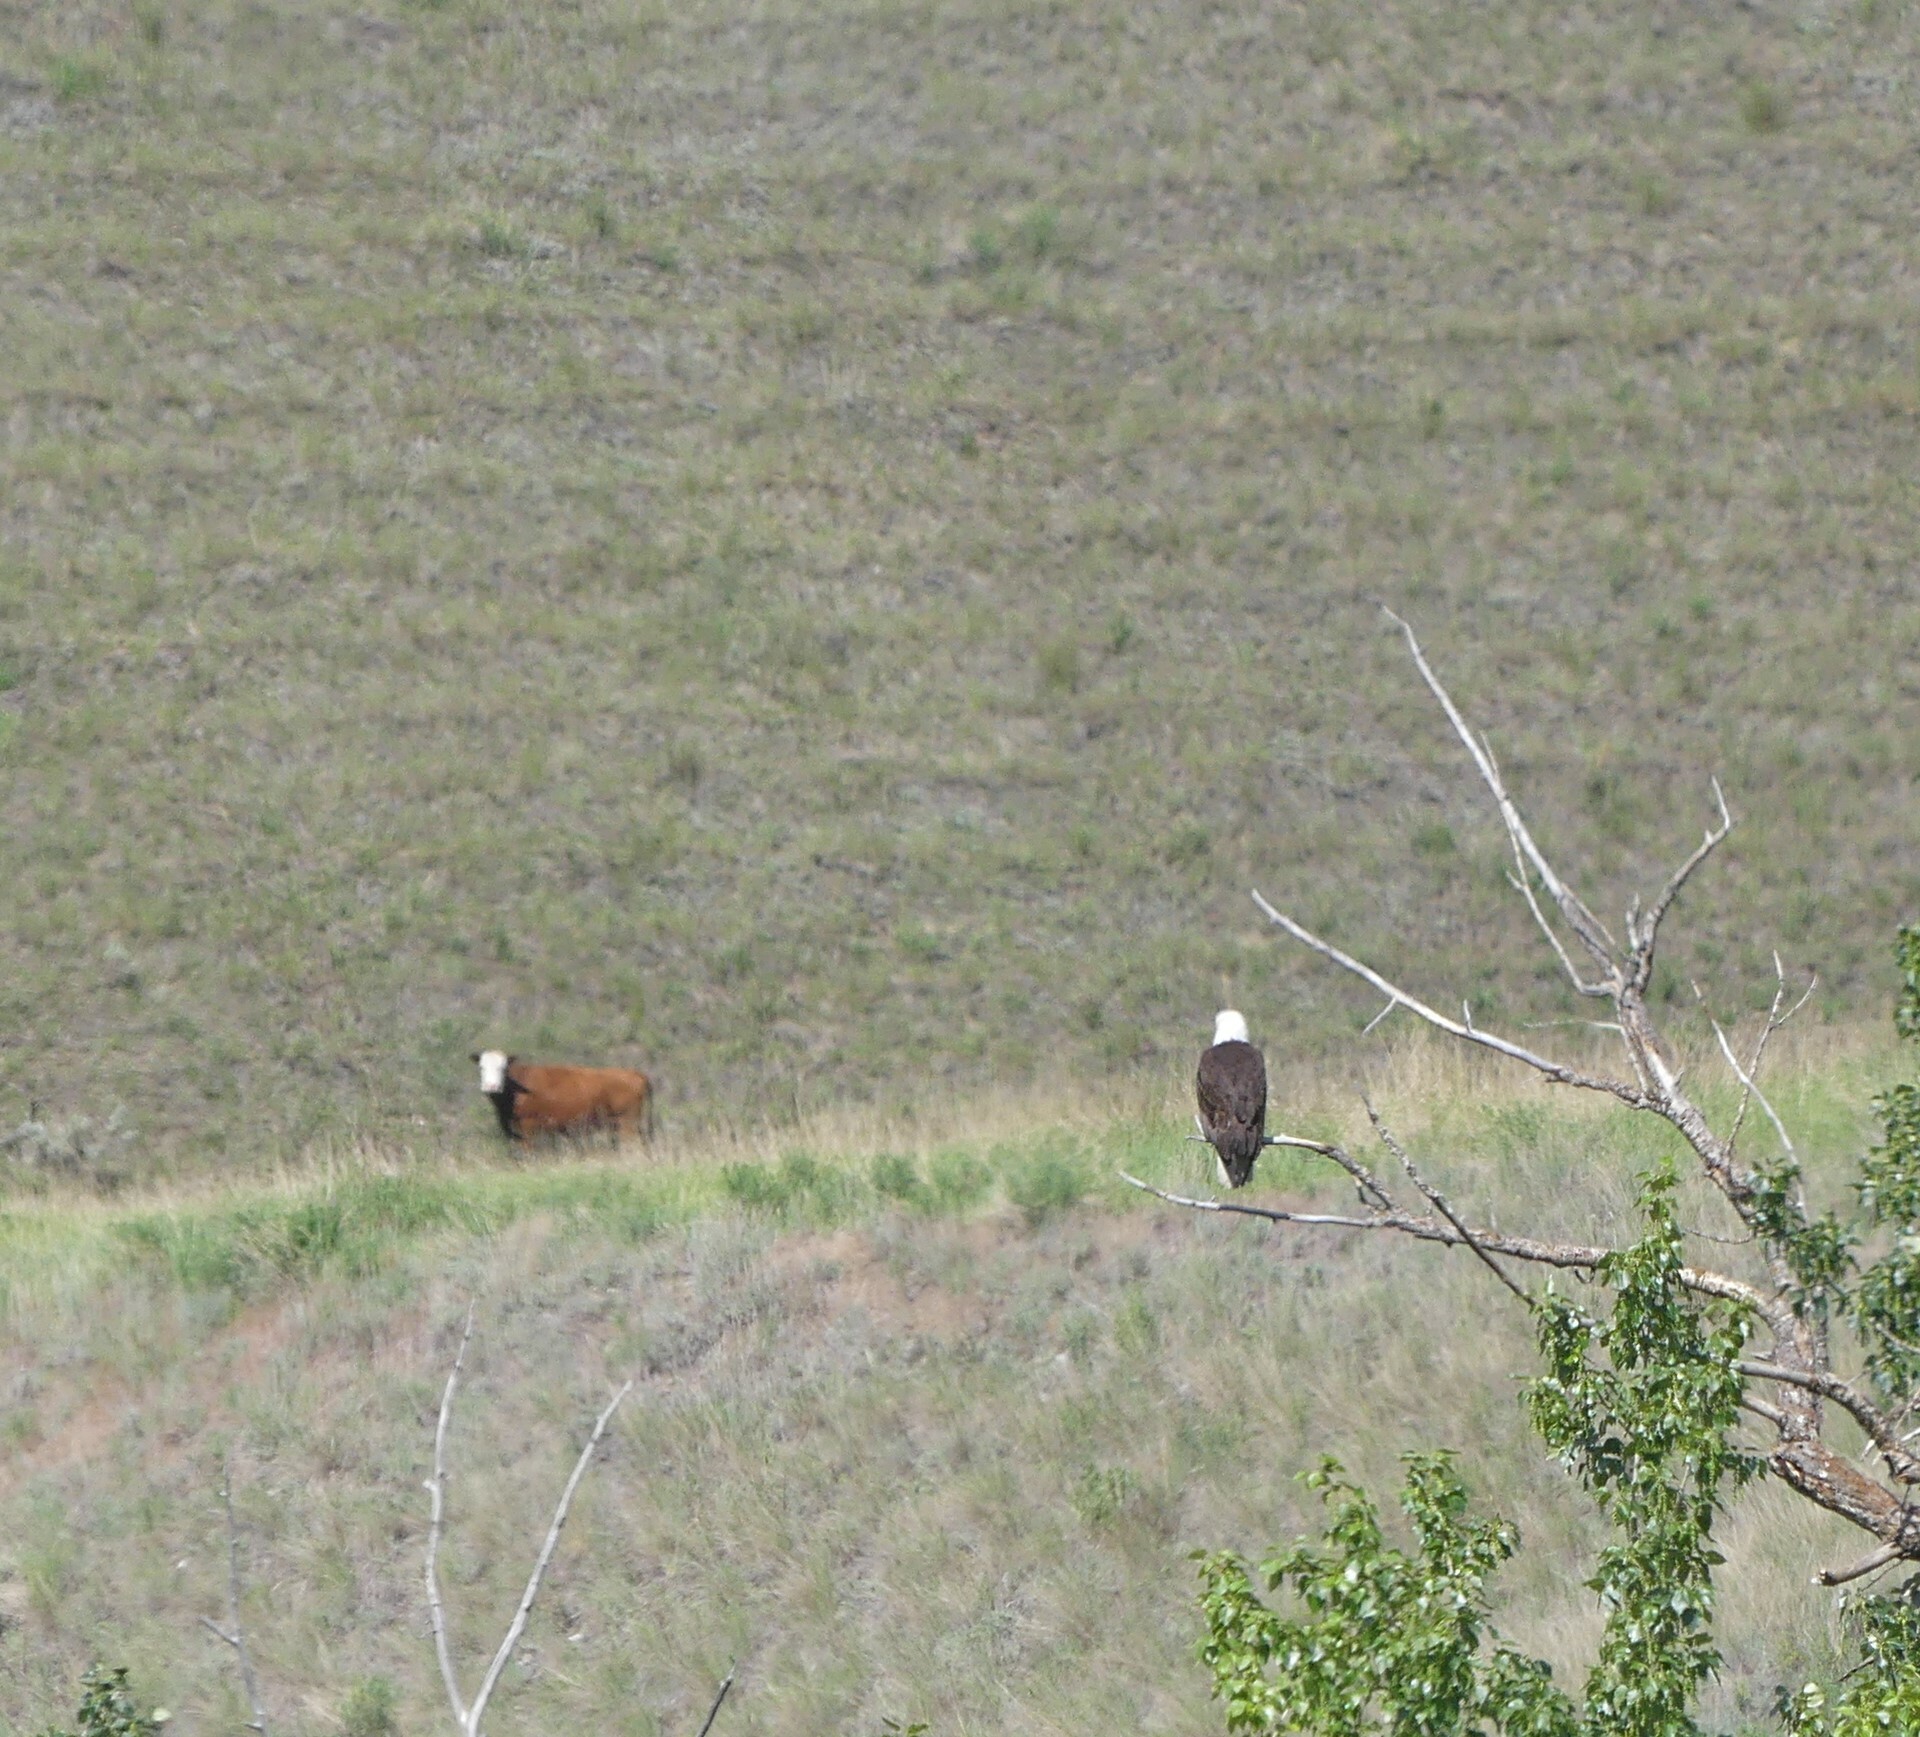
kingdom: Animalia
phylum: Chordata
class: Aves
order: Accipitriformes
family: Accipitridae
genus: Haliaeetus
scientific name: Haliaeetus leucocephalus
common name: Bald eagle
